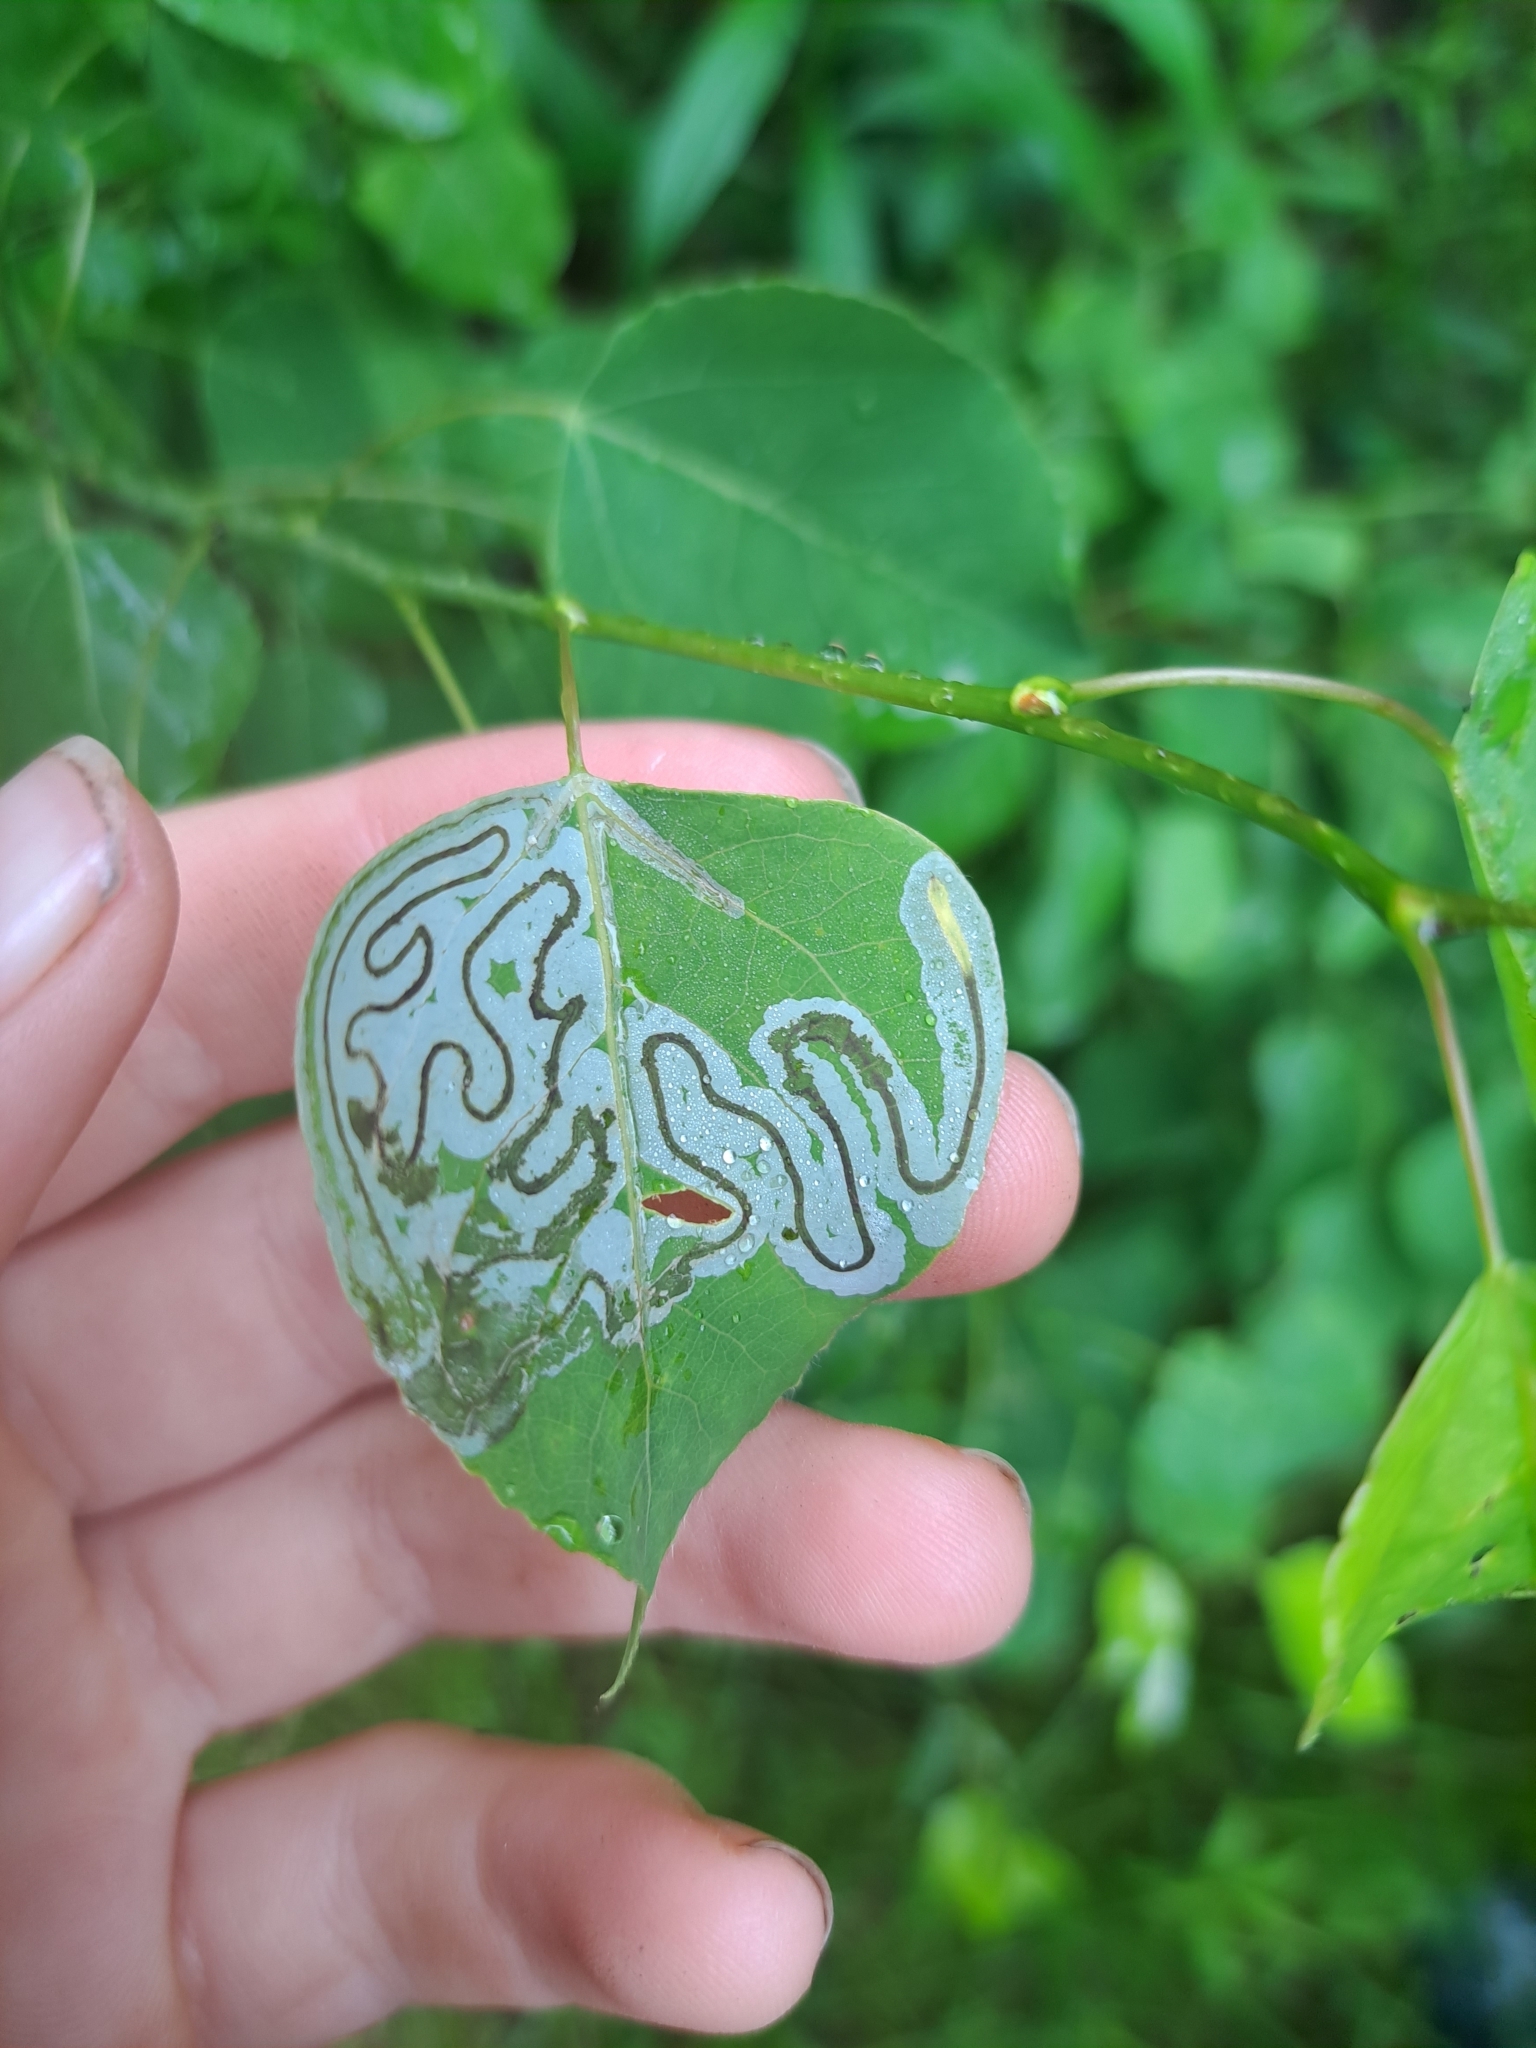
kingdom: Animalia
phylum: Arthropoda
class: Insecta
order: Lepidoptera
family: Gracillariidae
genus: Phyllocnistis
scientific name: Phyllocnistis populiella
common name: Aspen serpentine leafminer moth
